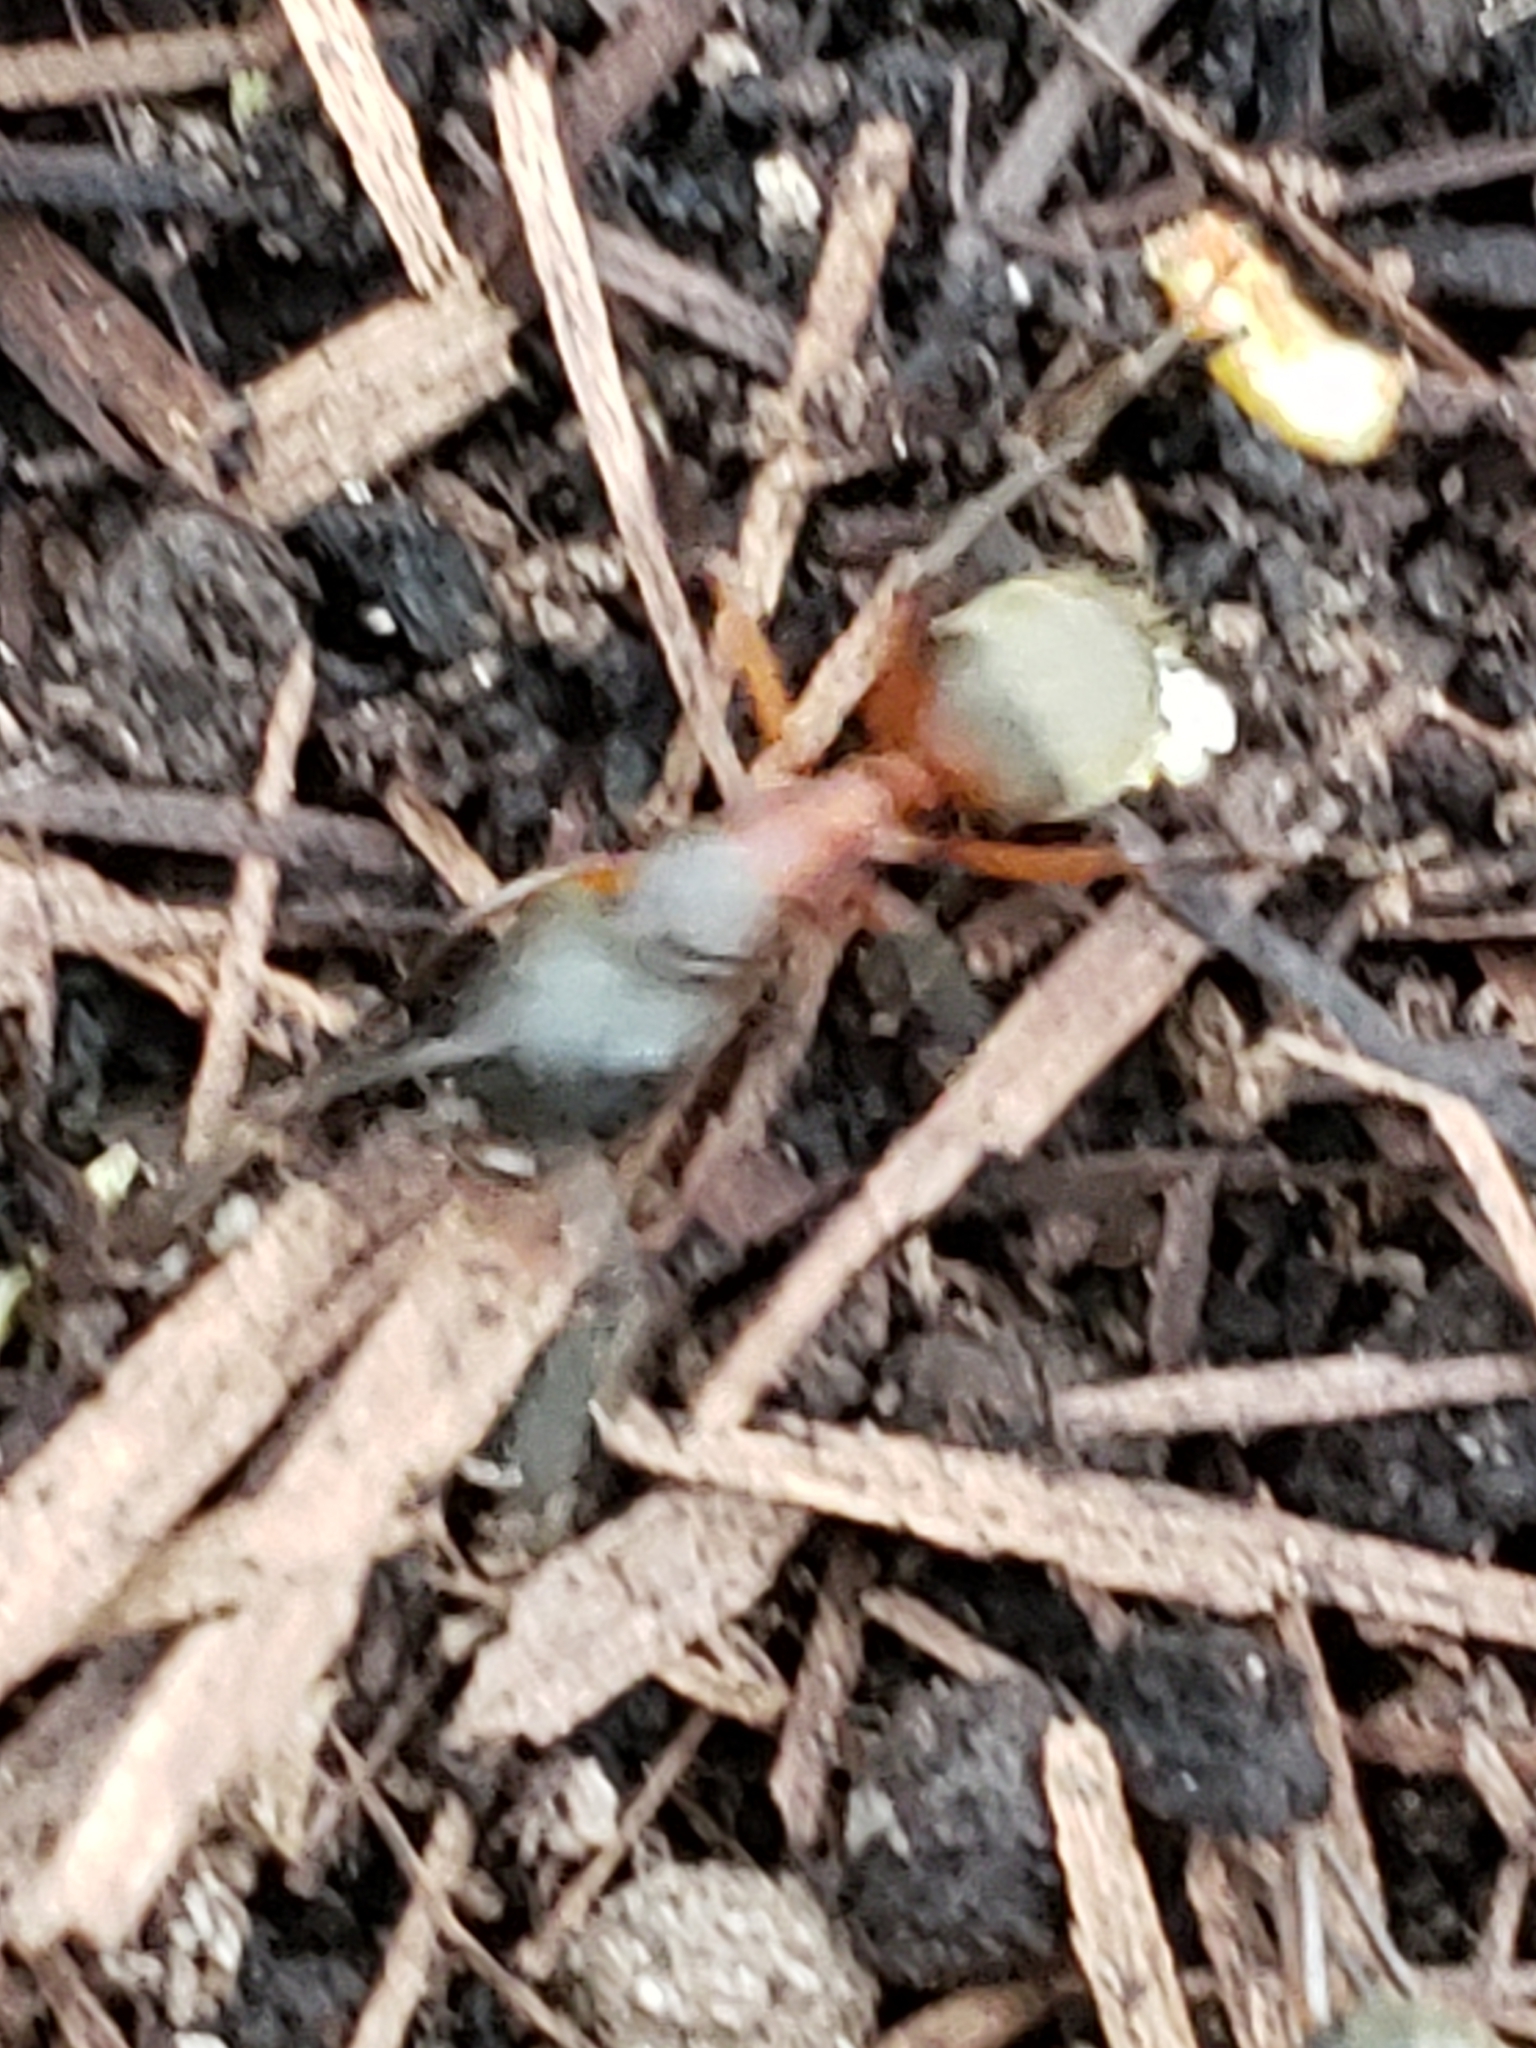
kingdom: Animalia
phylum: Arthropoda
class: Insecta
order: Hymenoptera
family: Formicidae
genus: Camponotus
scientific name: Camponotus chromaiodes
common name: Red carpenter ant
